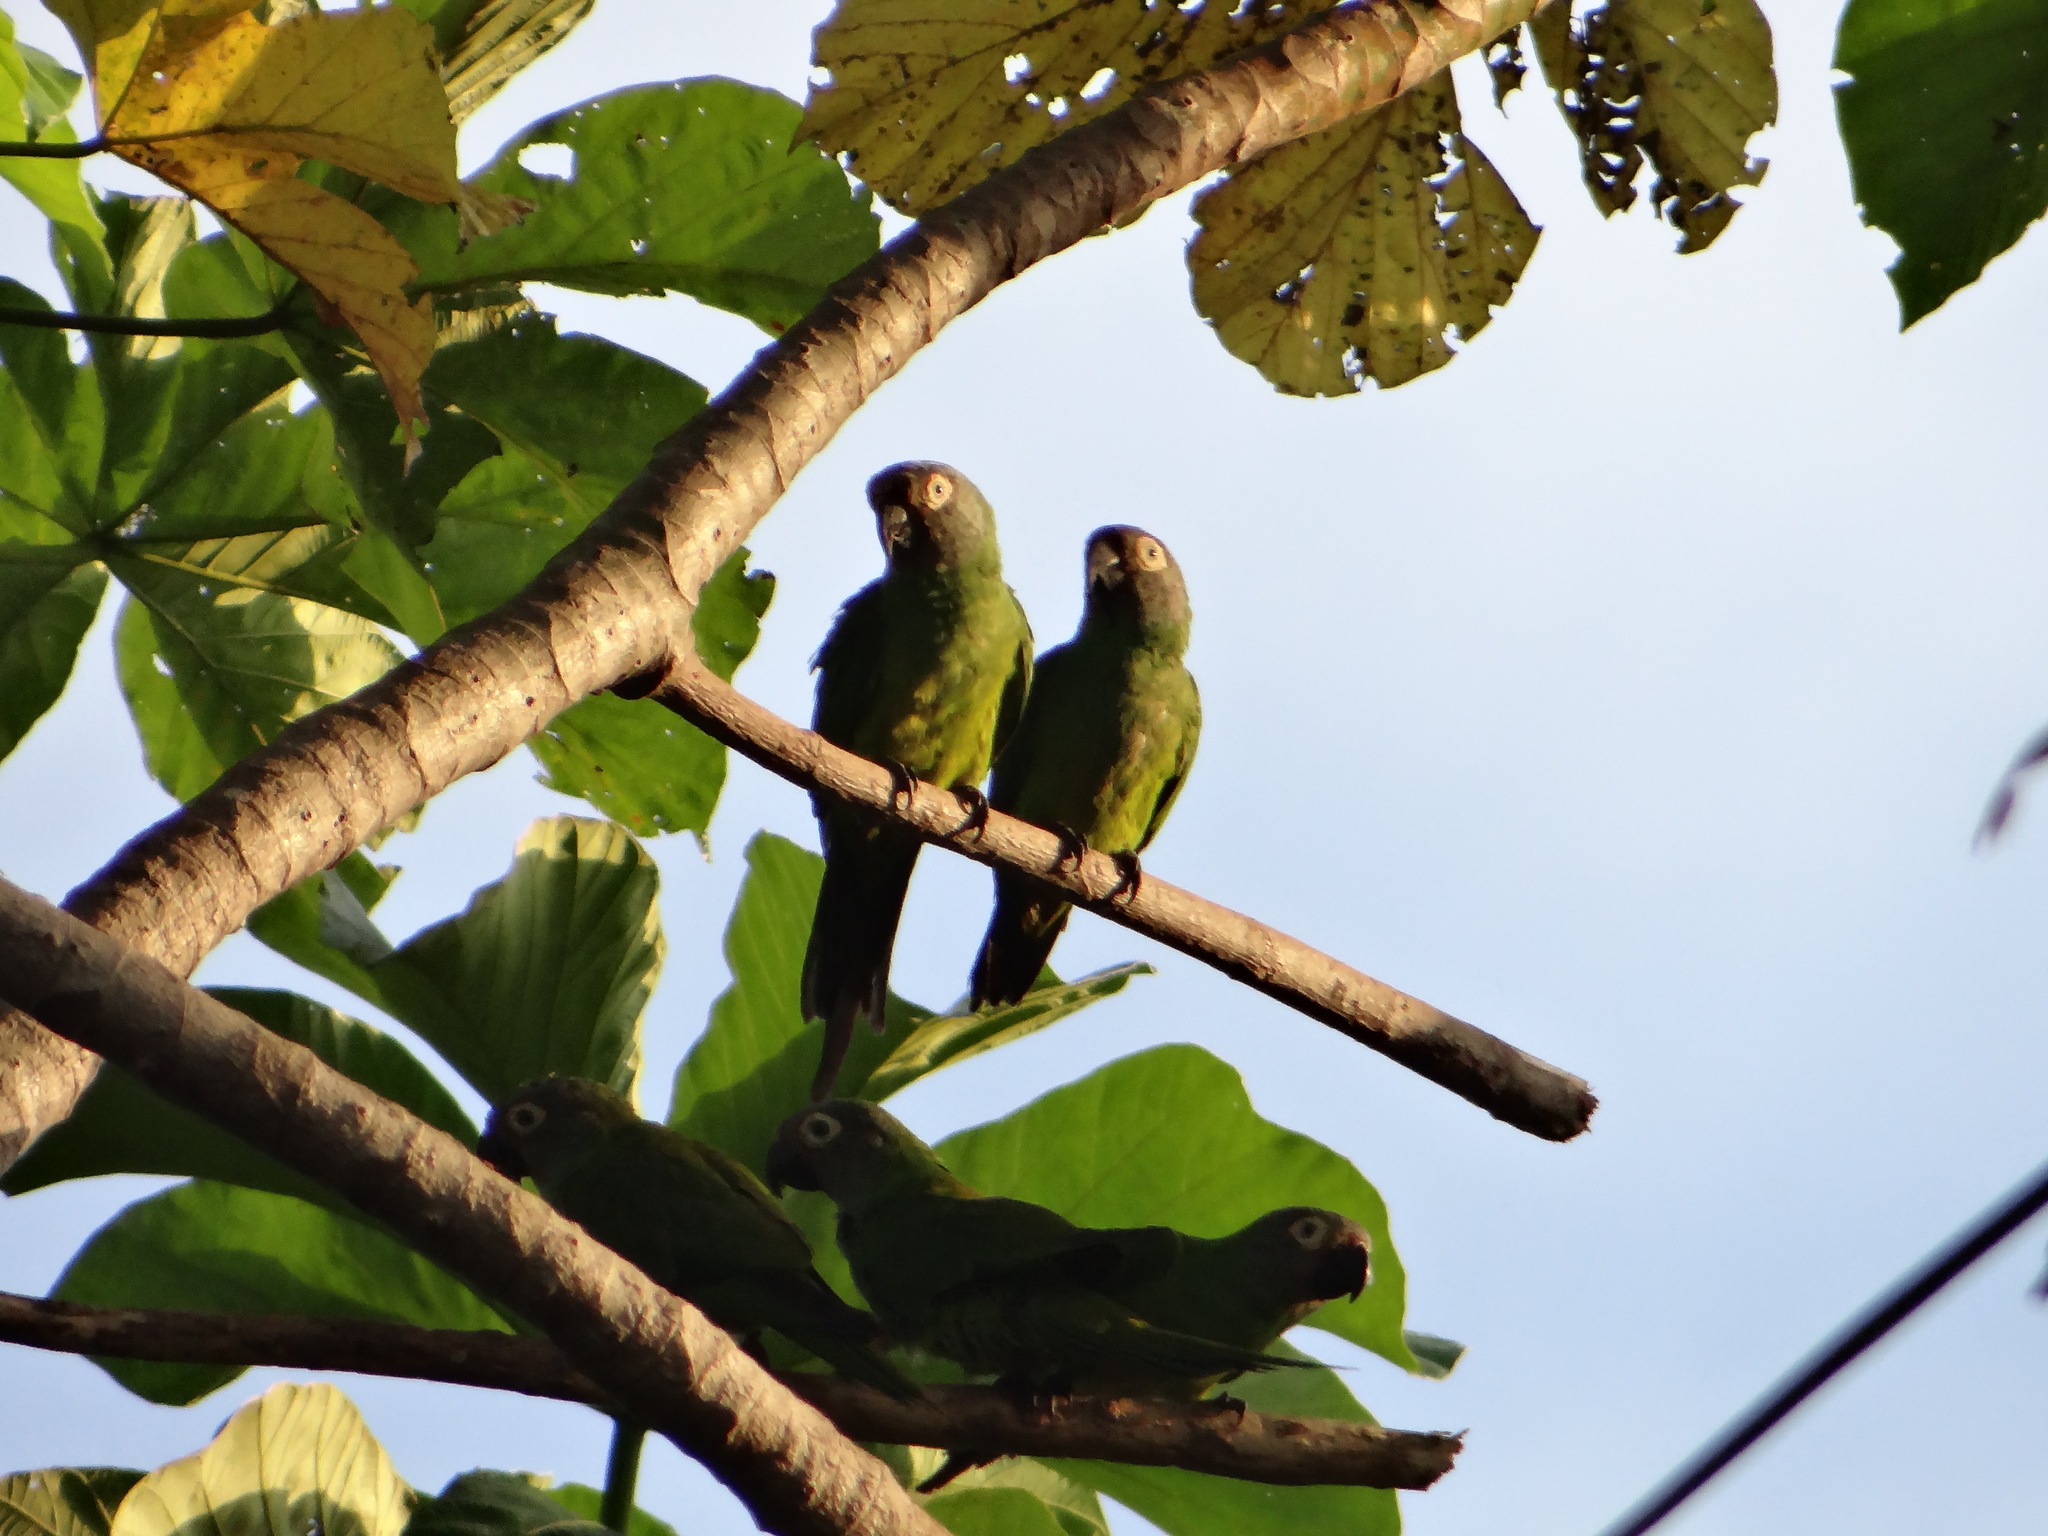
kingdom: Animalia
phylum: Chordata
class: Aves
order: Psittaciformes
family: Psittacidae
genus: Aratinga
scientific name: Aratinga weddellii
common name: Dusky-headed parakeet
